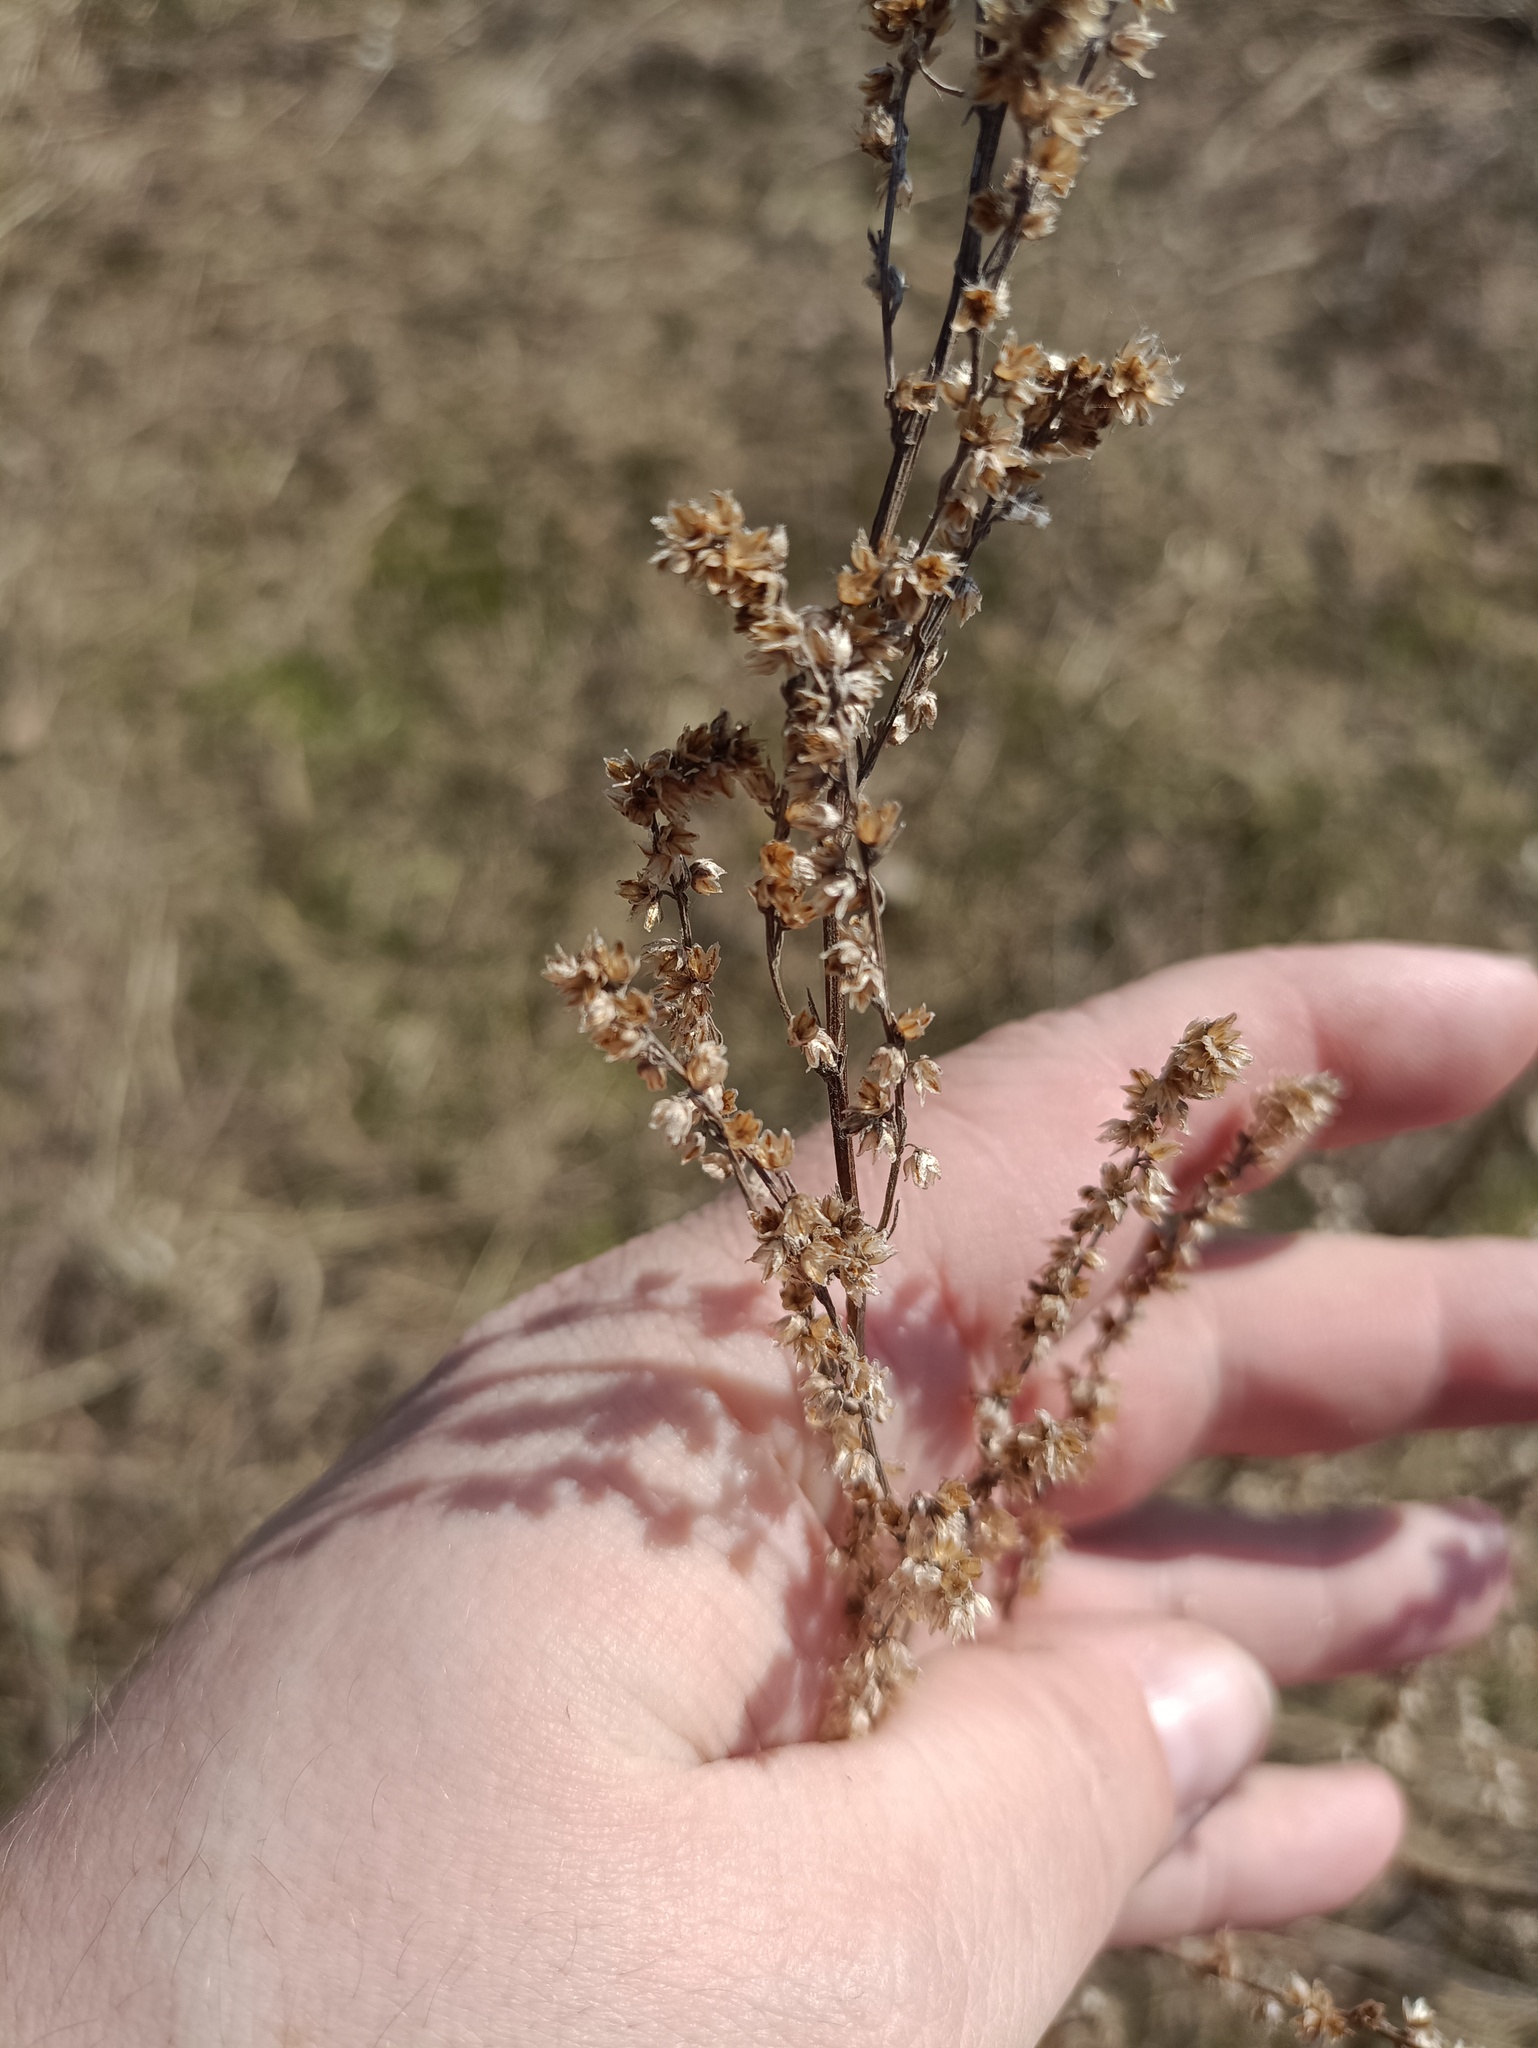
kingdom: Plantae
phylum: Tracheophyta
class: Magnoliopsida
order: Asterales
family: Asteraceae
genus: Artemisia
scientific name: Artemisia vulgaris
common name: Mugwort
